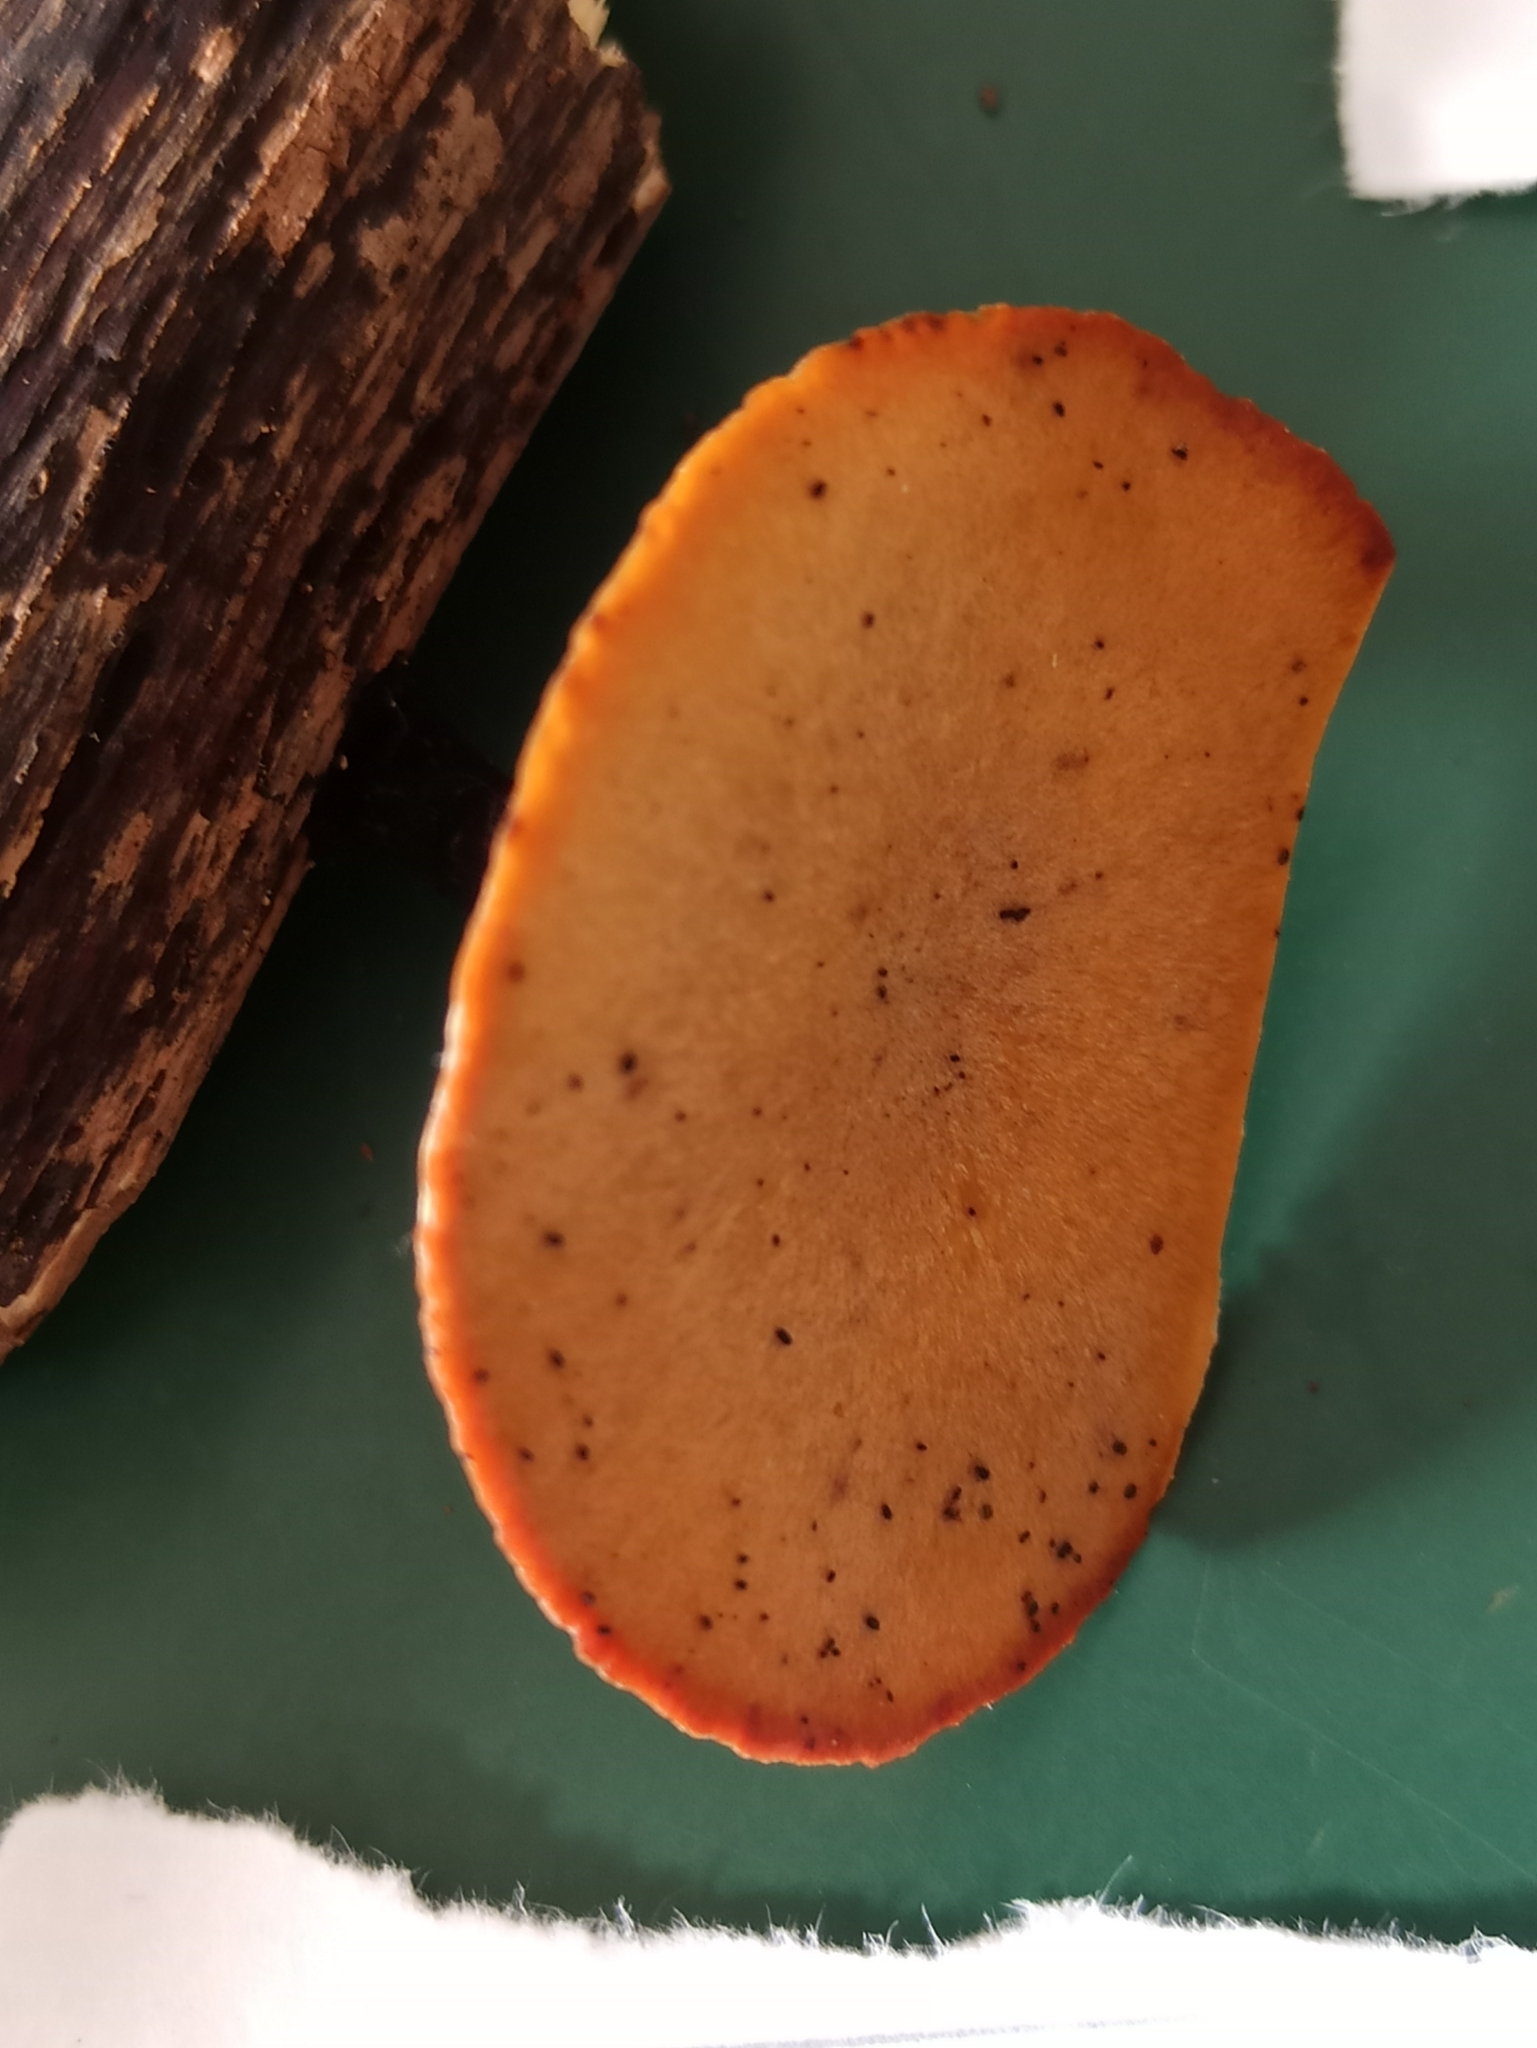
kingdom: Fungi
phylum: Basidiomycota
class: Agaricomycetes
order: Polyporales
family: Polyporaceae
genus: Cerioporus
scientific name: Cerioporus leptocephalus
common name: Blackfoot polypore
